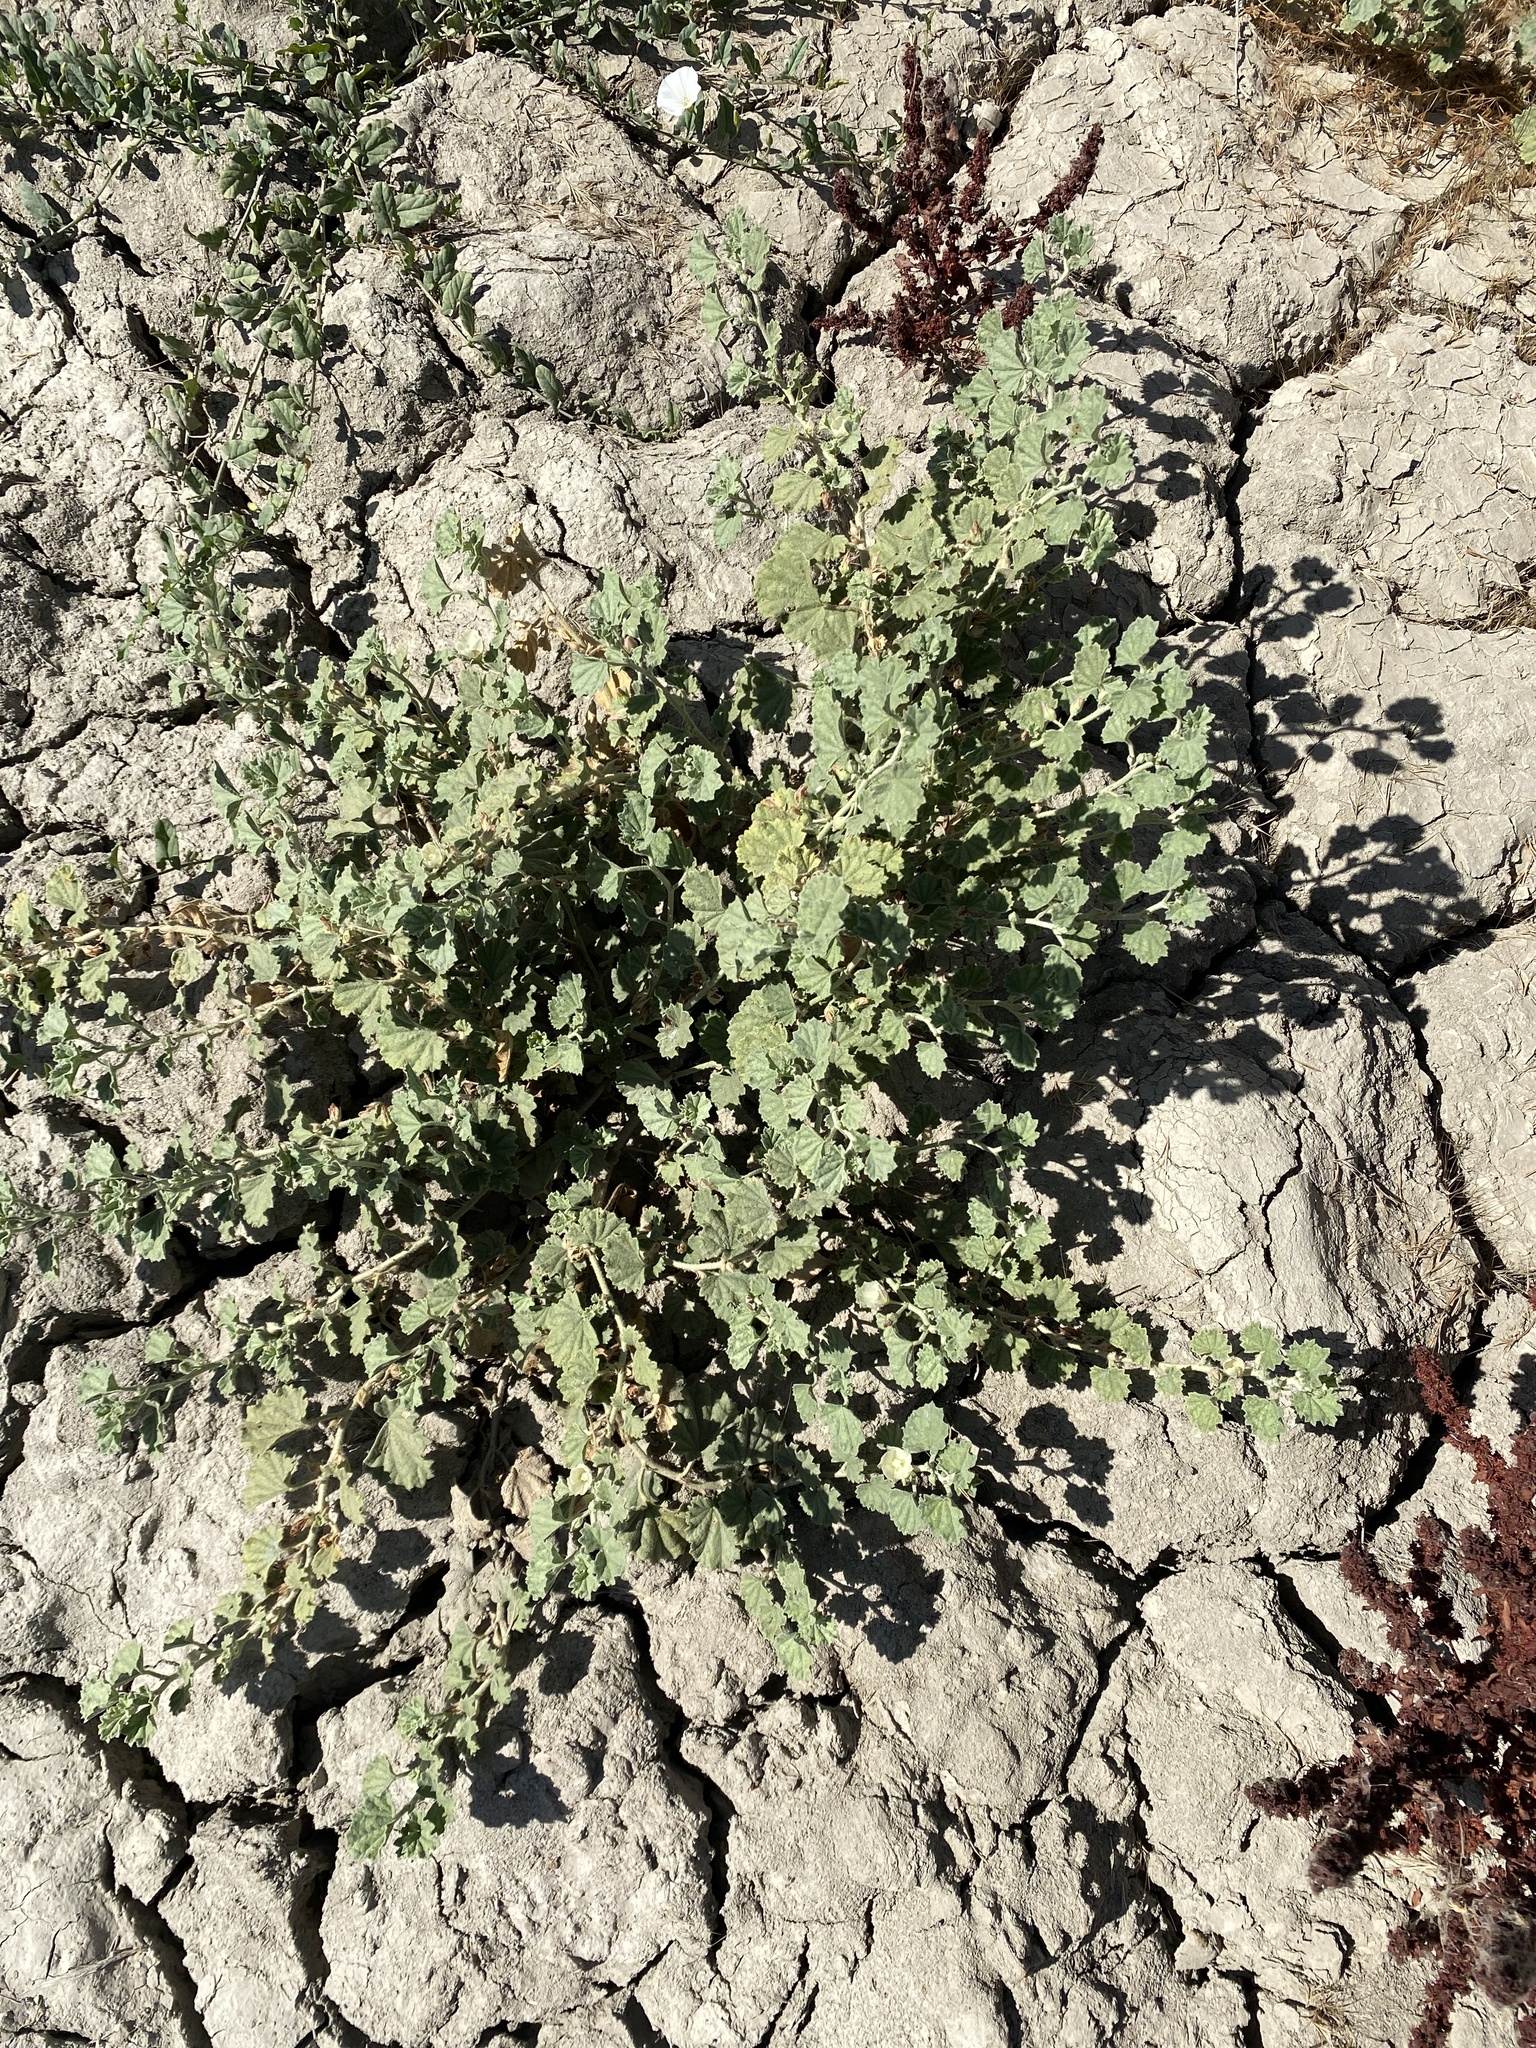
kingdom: Plantae
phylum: Tracheophyta
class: Magnoliopsida
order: Malvales
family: Malvaceae
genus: Malvella
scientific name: Malvella leprosa
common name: Alkali-mallow
